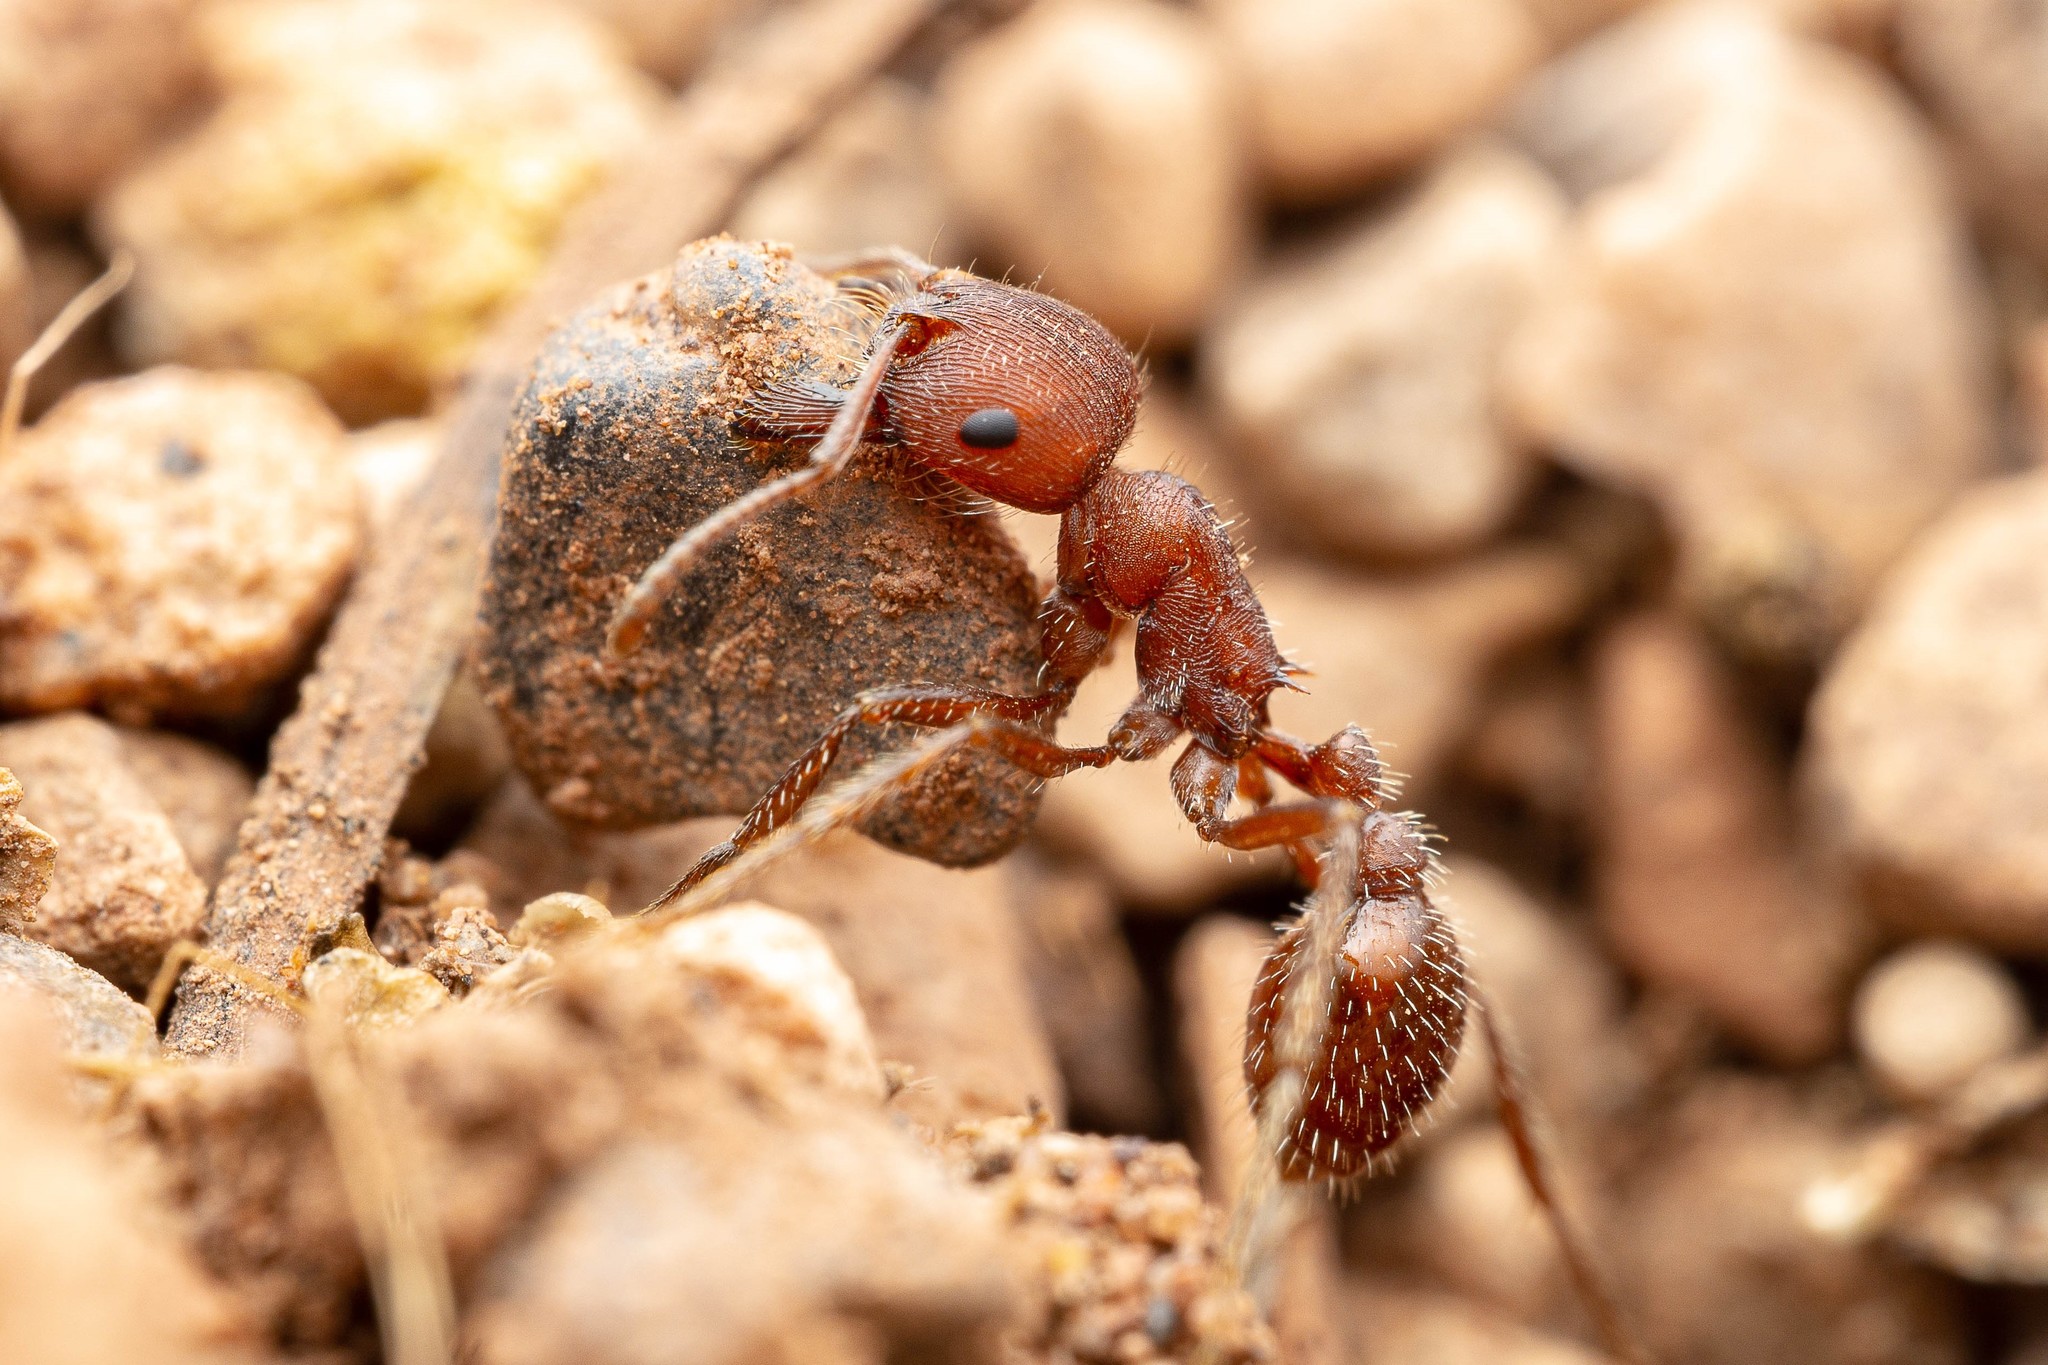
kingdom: Animalia
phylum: Arthropoda
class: Insecta
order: Hymenoptera
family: Formicidae
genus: Pogonomyrmex
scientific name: Pogonomyrmex occidentalis
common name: Western harvester ant
